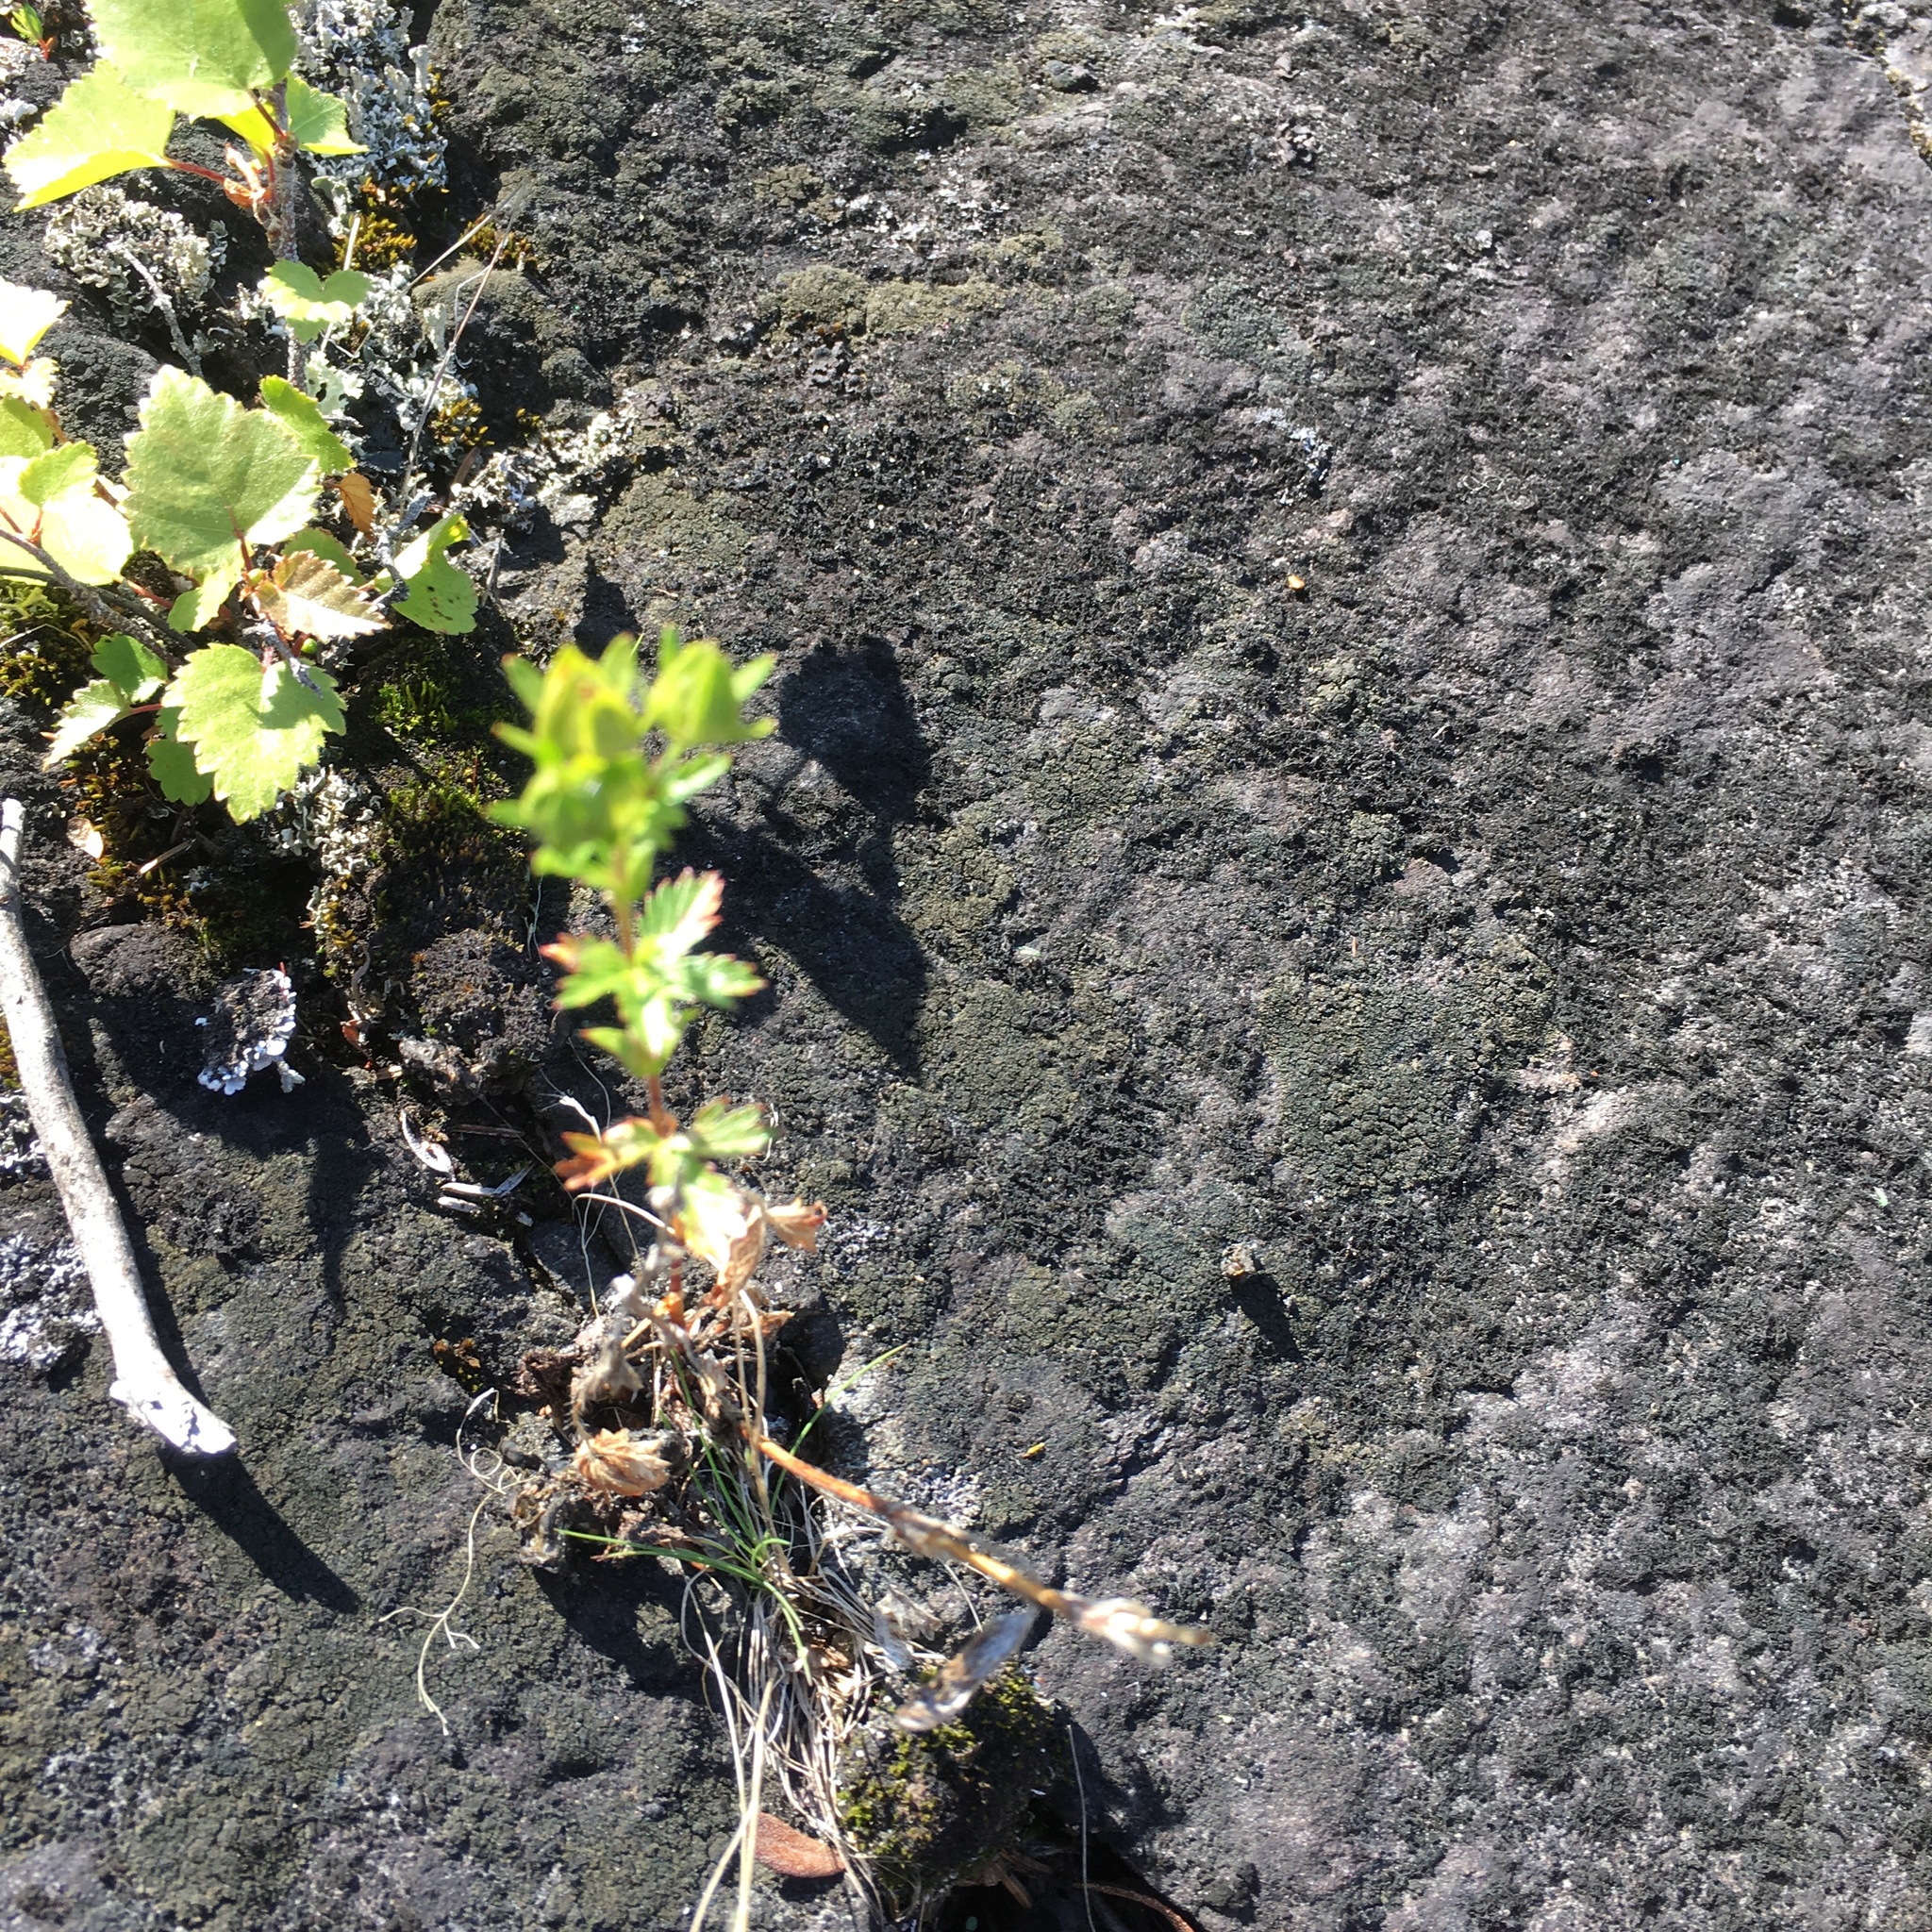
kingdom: Plantae
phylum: Tracheophyta
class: Magnoliopsida
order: Rosales
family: Rosaceae
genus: Potentilla
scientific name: Potentilla norvegica
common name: Ternate-leaved cinquefoil
